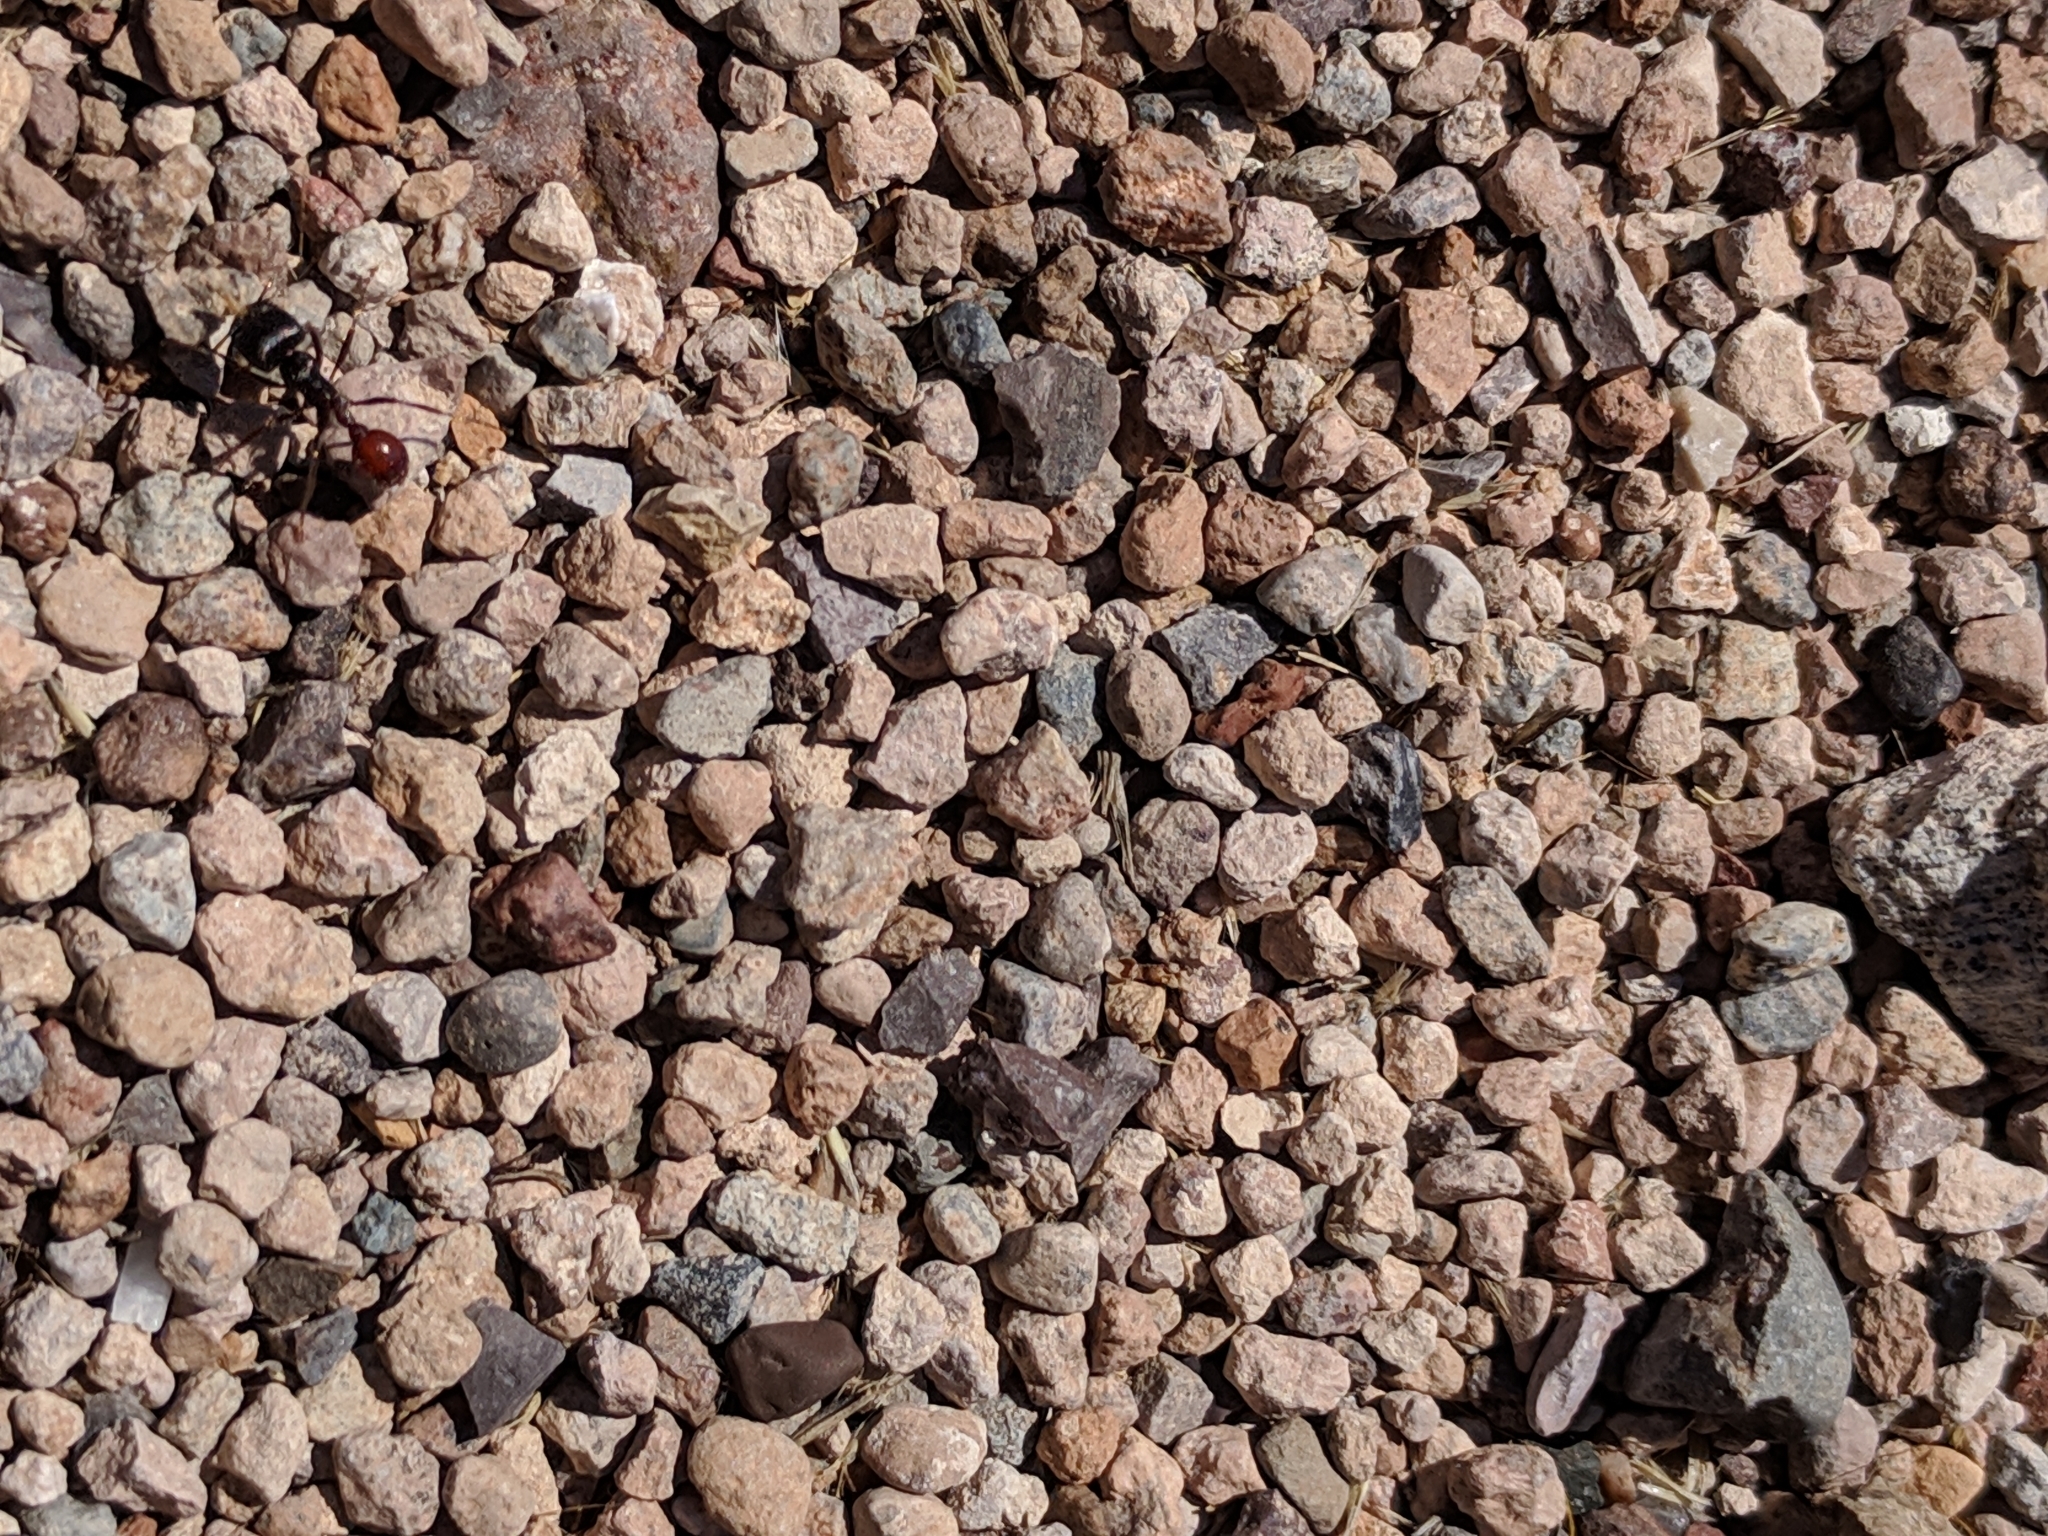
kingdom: Animalia
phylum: Arthropoda
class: Insecta
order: Hymenoptera
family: Formicidae
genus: Pogonomyrmex
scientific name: Pogonomyrmex rugosus
